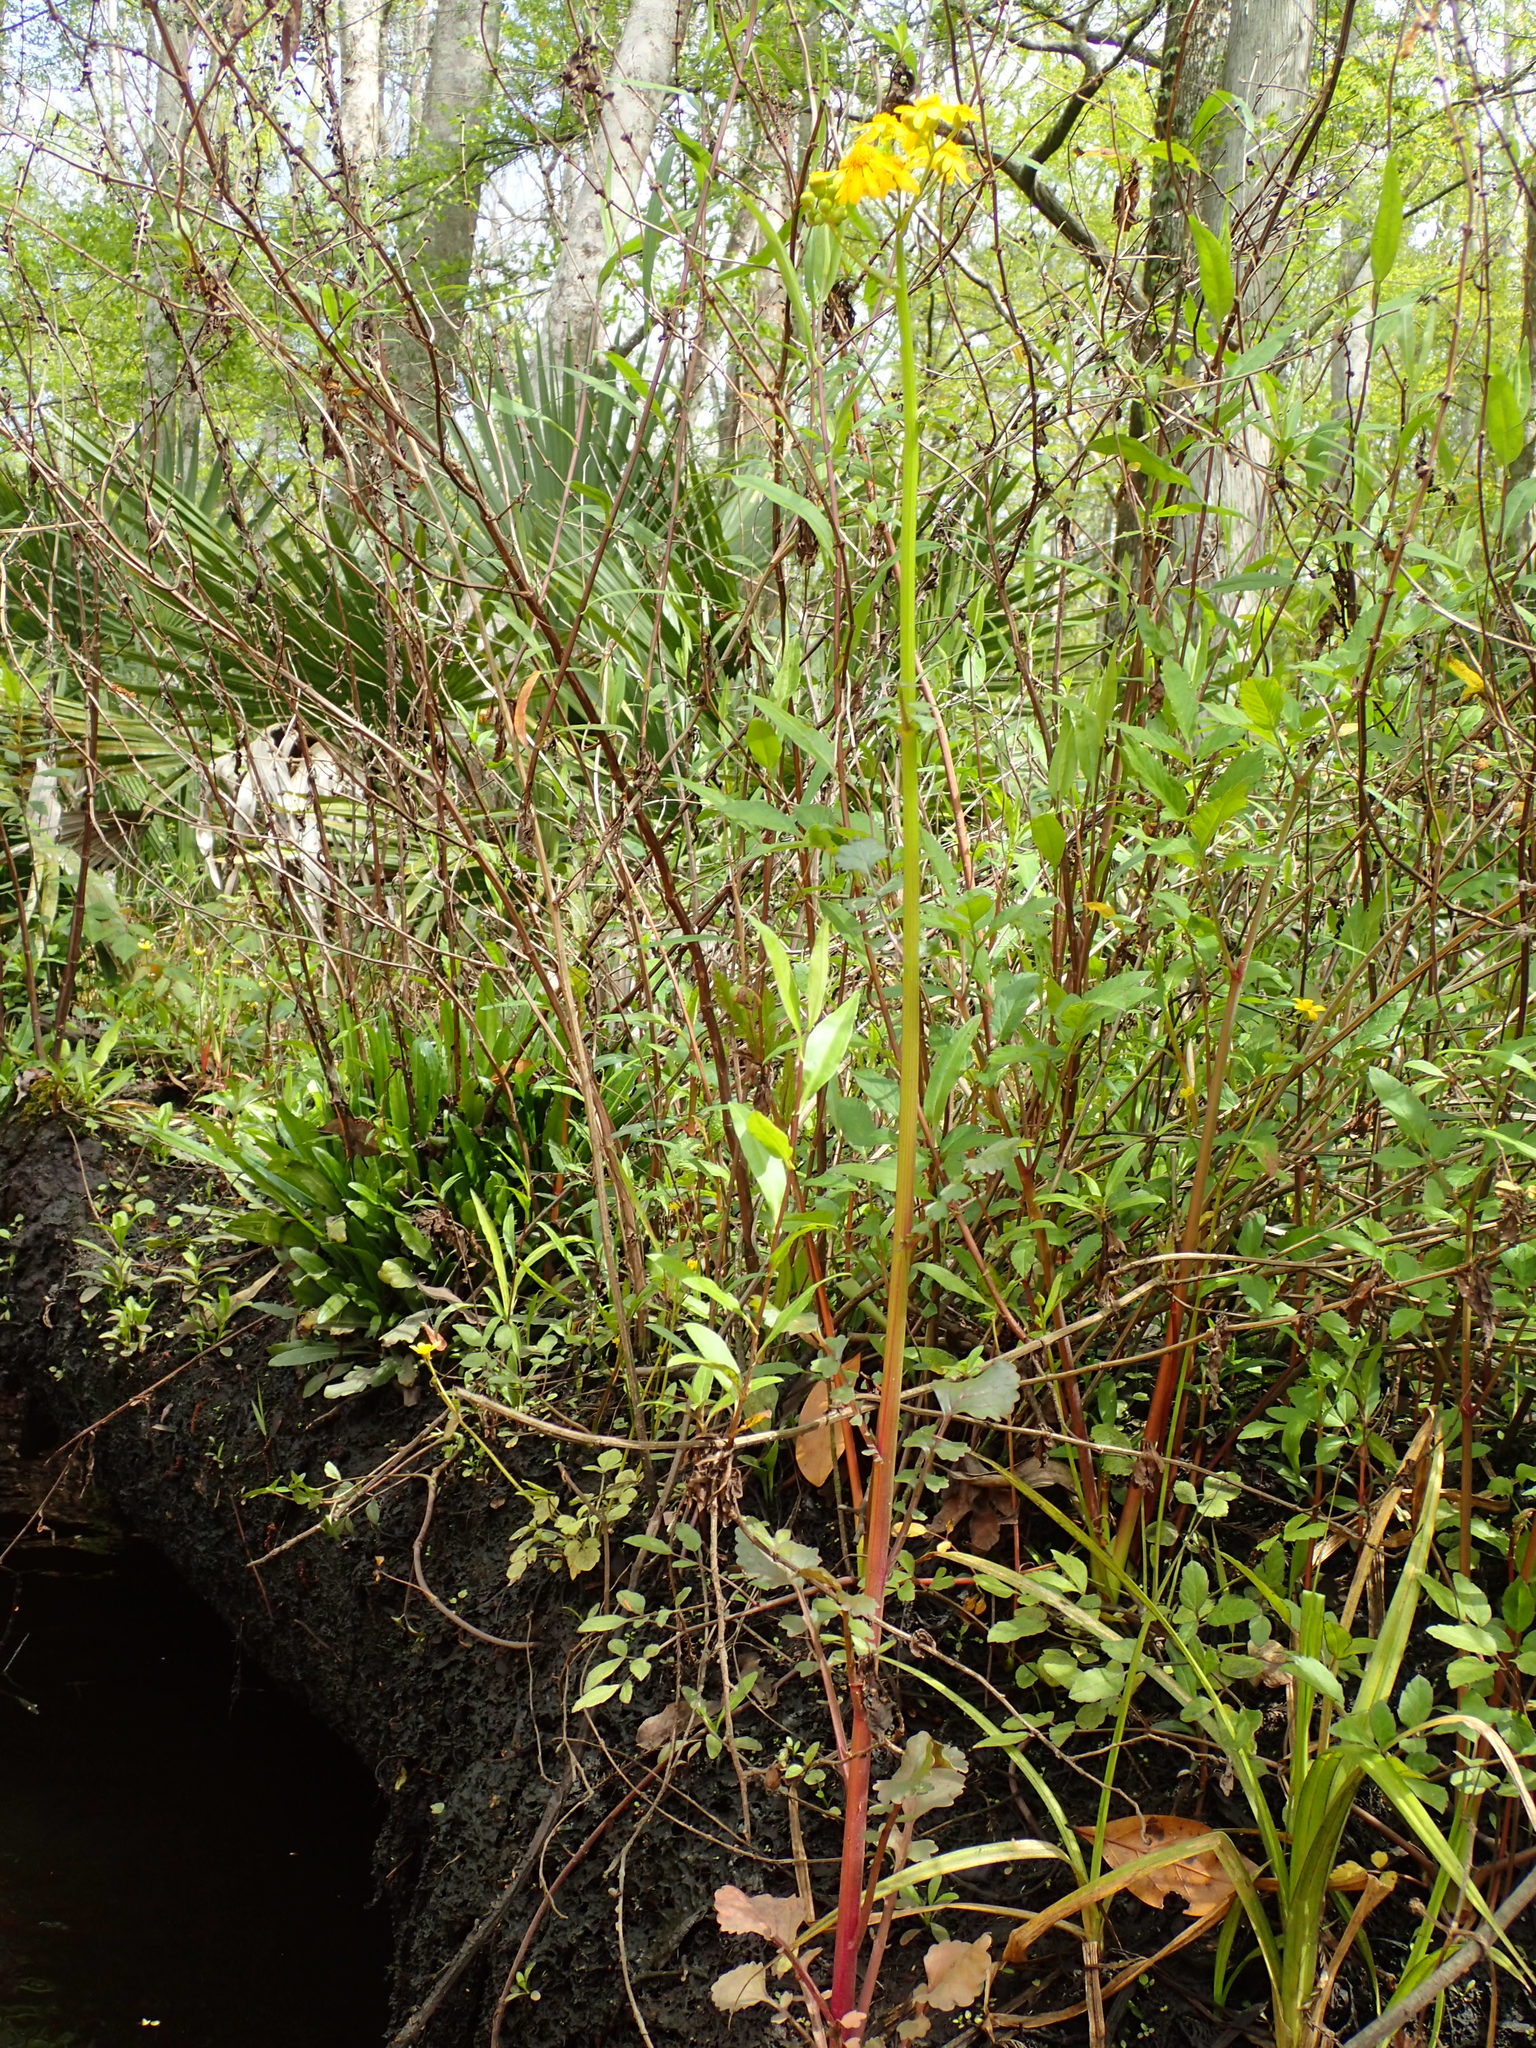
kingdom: Plantae
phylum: Tracheophyta
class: Magnoliopsida
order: Asterales
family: Asteraceae
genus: Packera
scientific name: Packera glabella
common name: Butterweed
